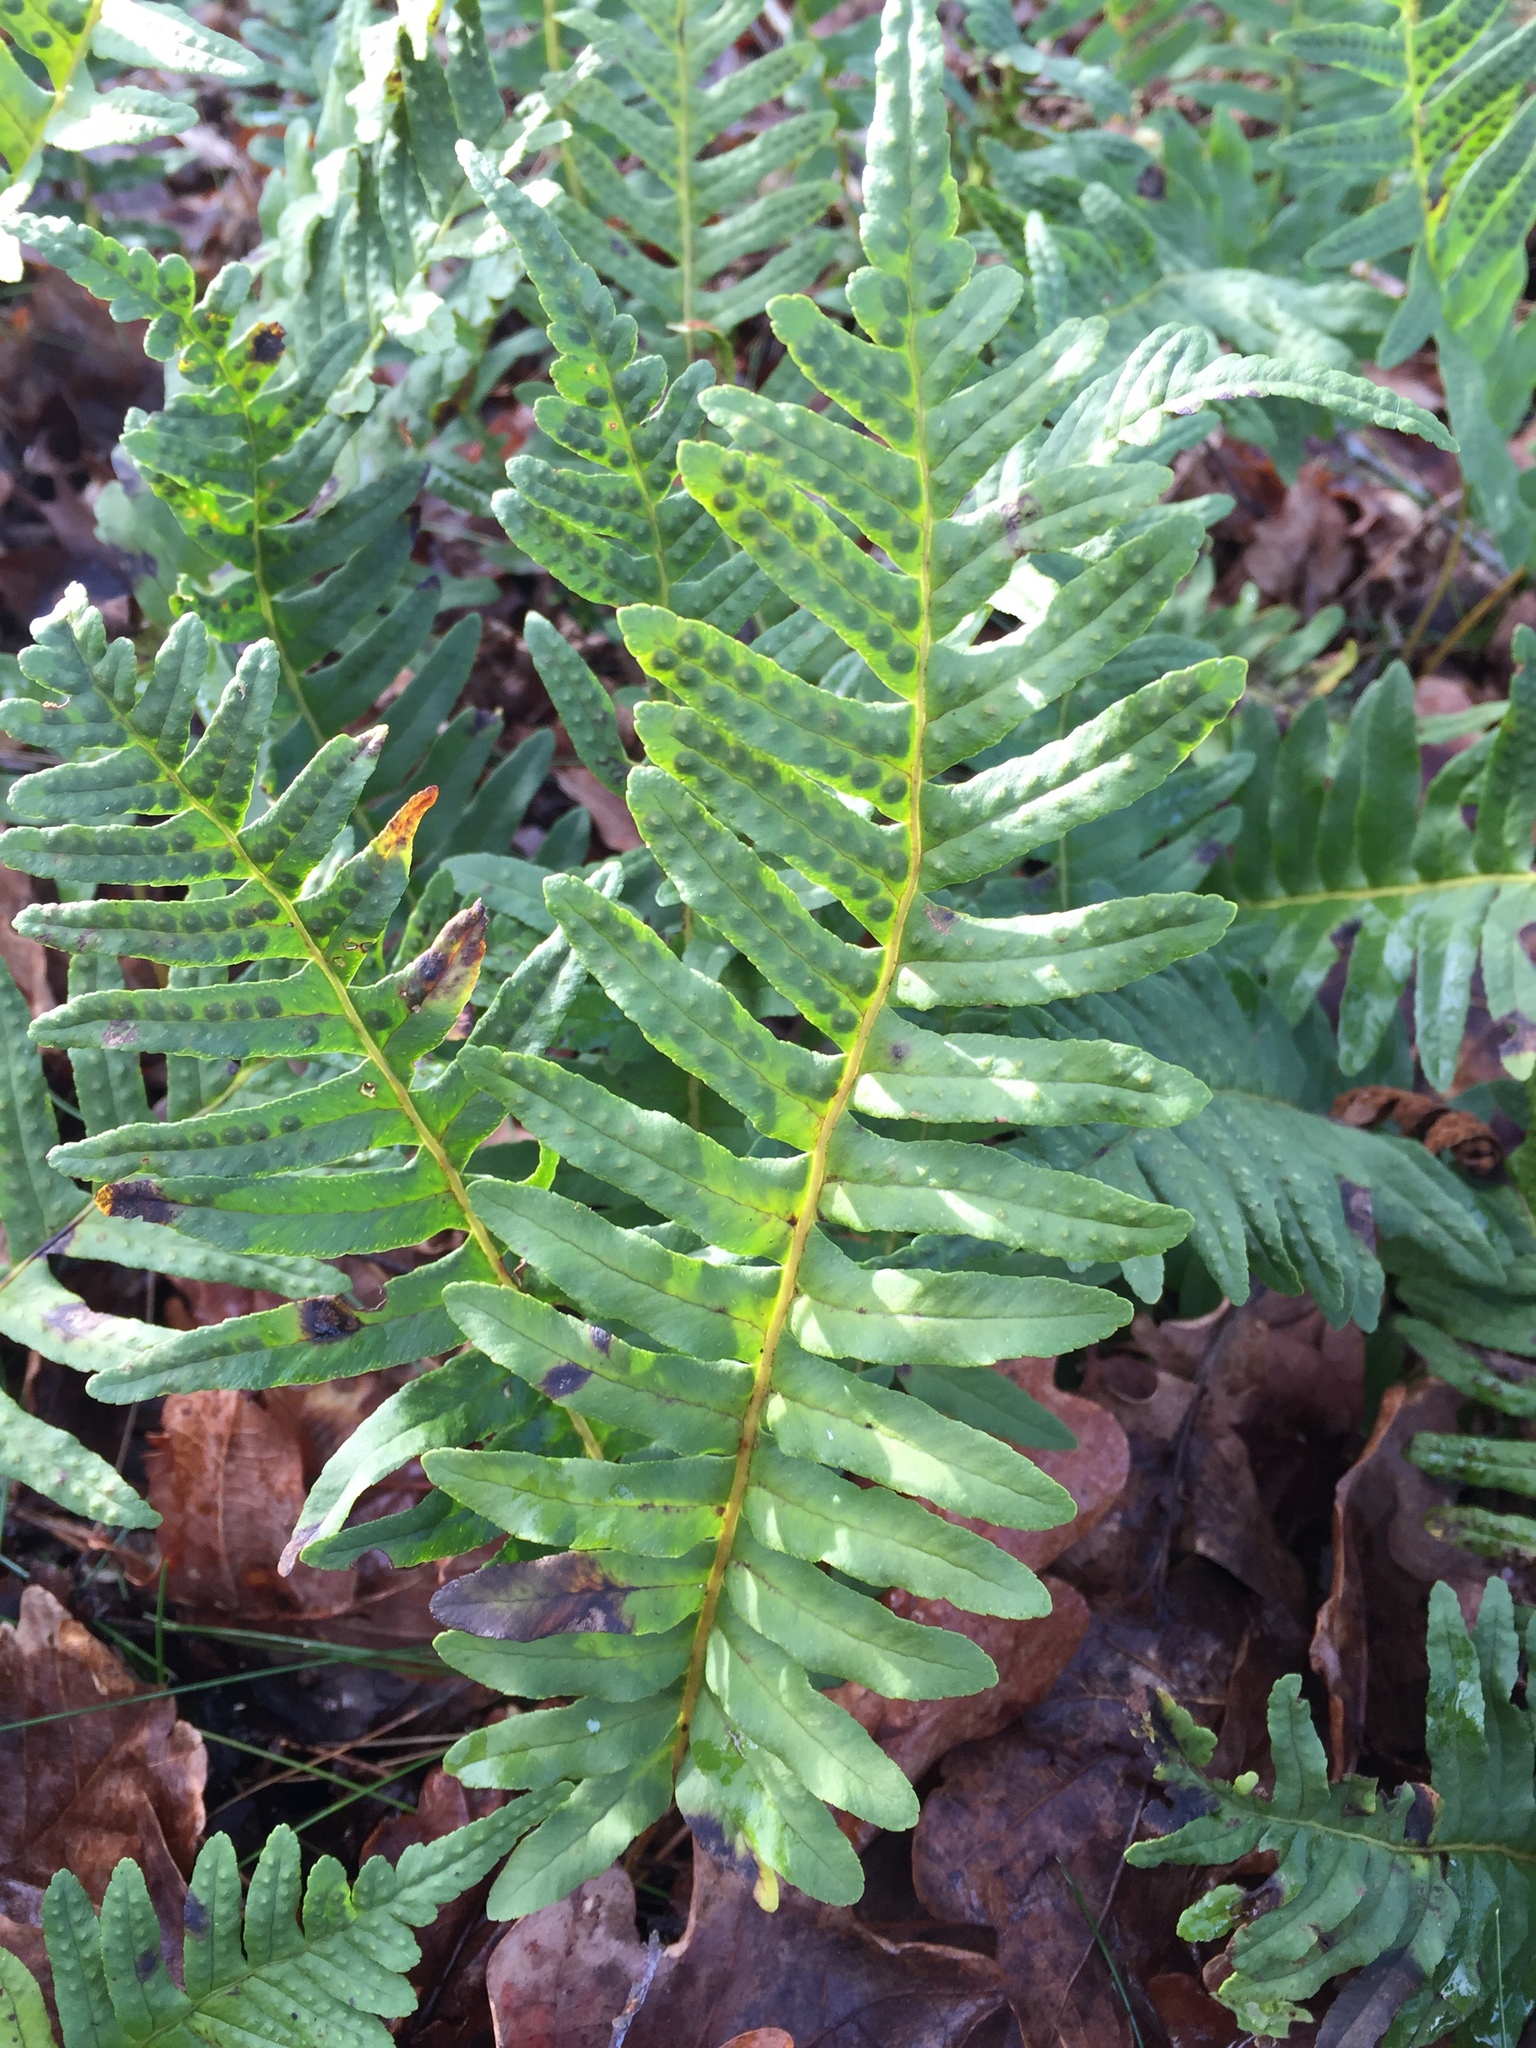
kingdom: Plantae
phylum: Tracheophyta
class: Polypodiopsida
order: Polypodiales
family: Polypodiaceae
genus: Polypodium
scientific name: Polypodium vulgare
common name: Common polypody
